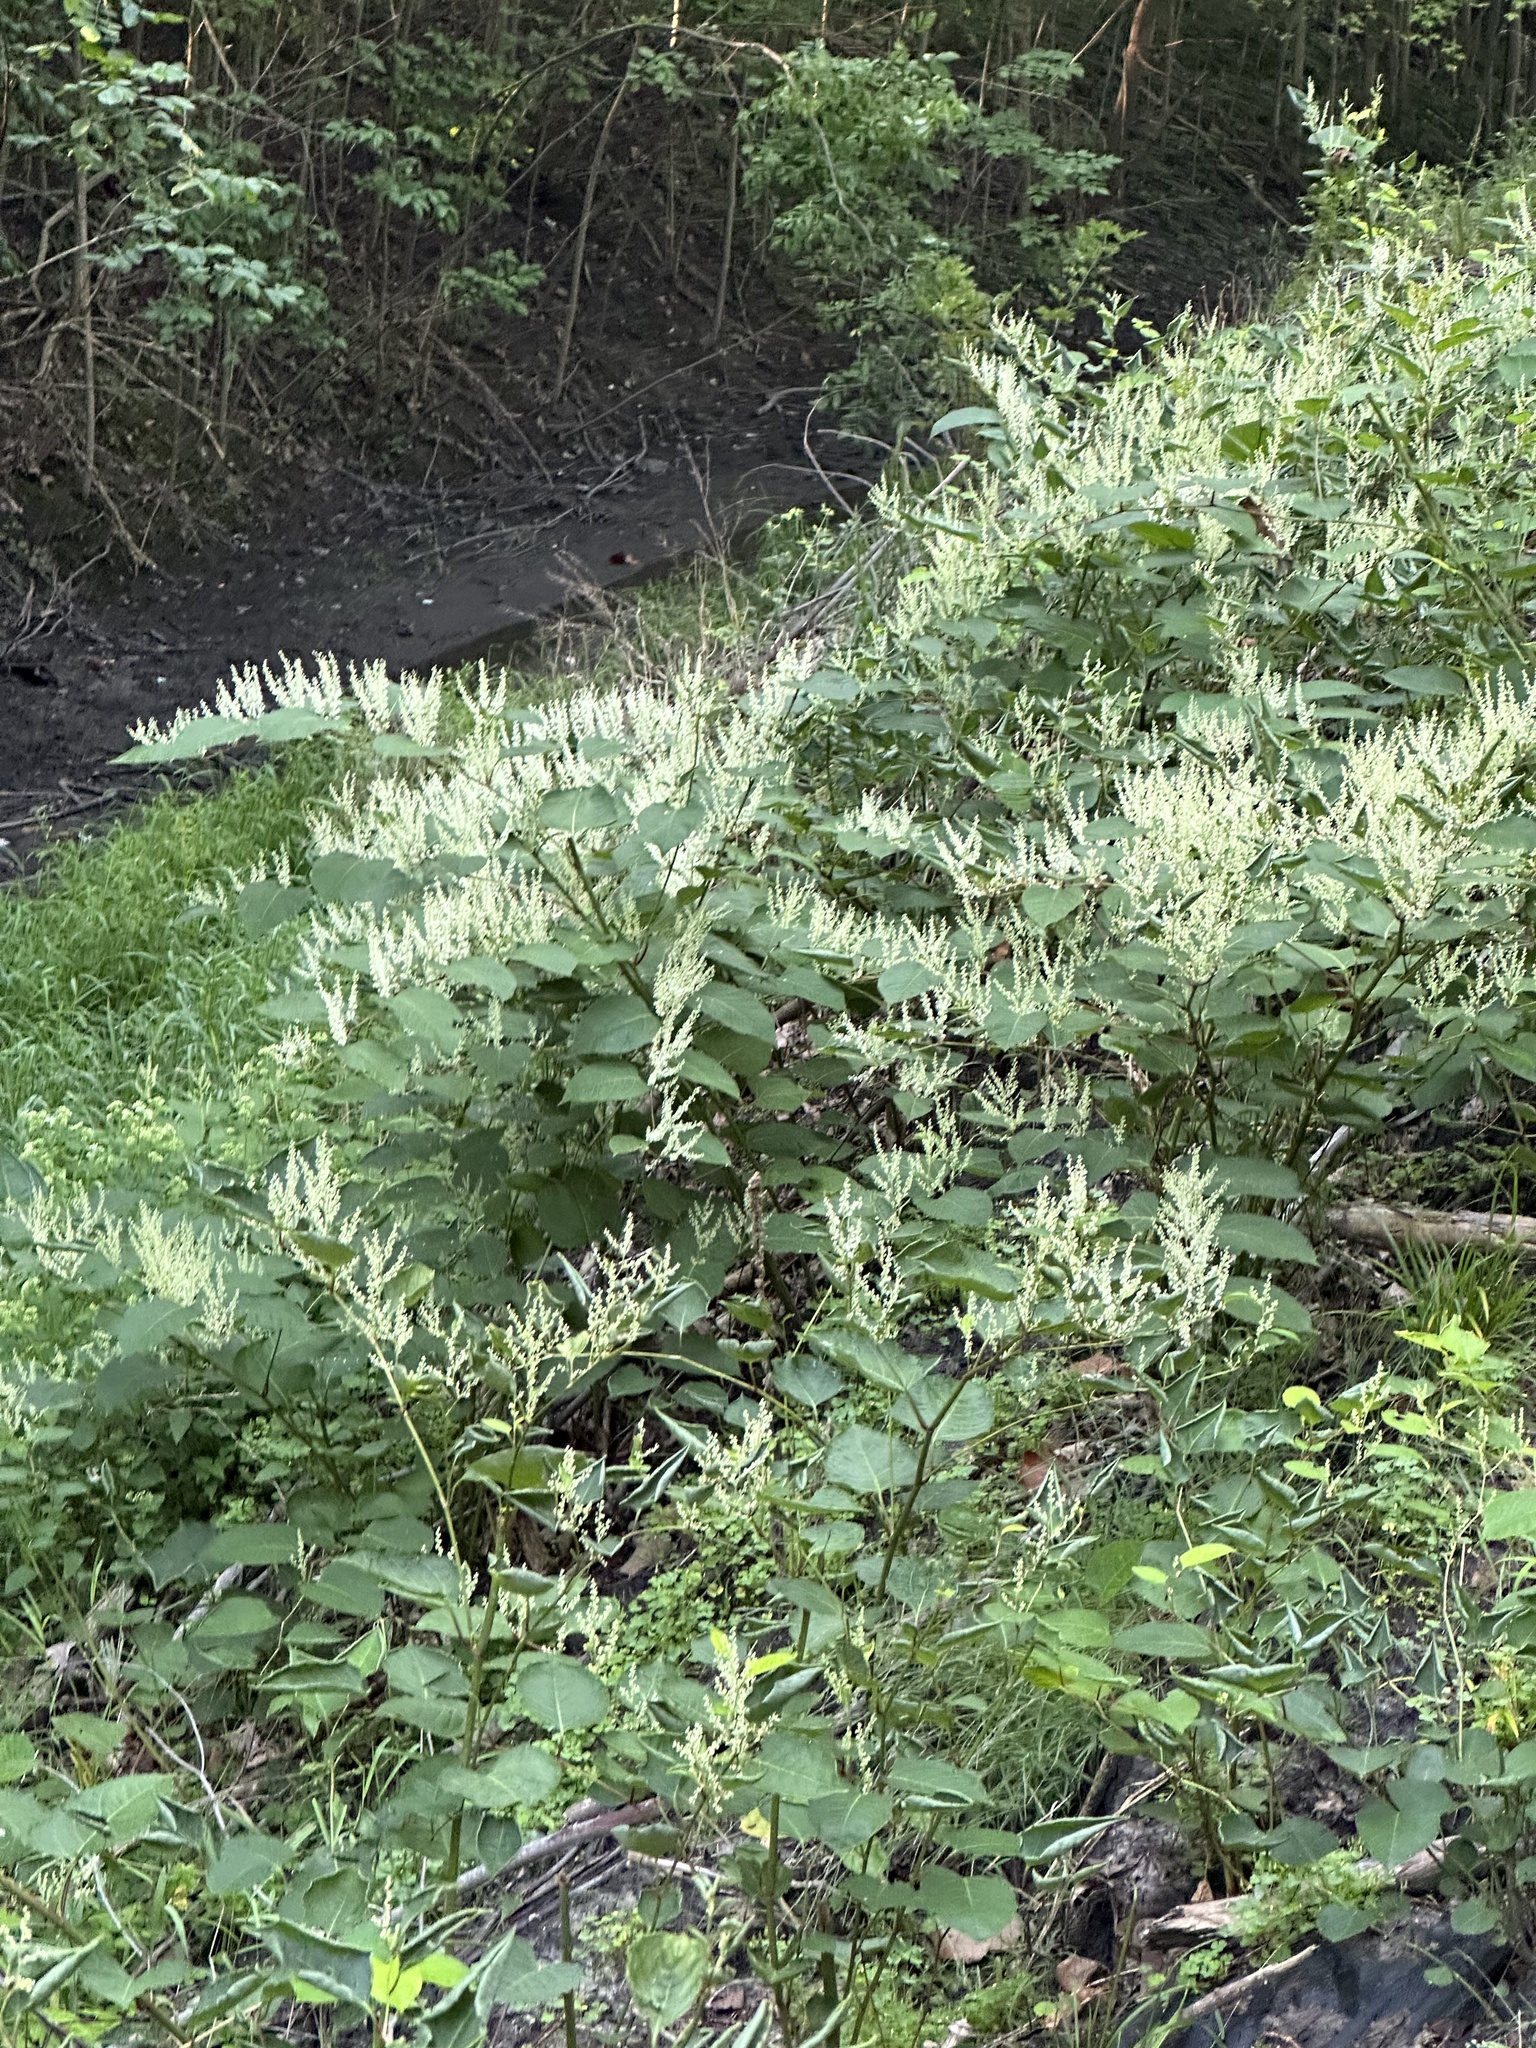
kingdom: Plantae
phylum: Tracheophyta
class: Magnoliopsida
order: Caryophyllales
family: Polygonaceae
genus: Reynoutria
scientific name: Reynoutria japonica
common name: Japanese knotweed
